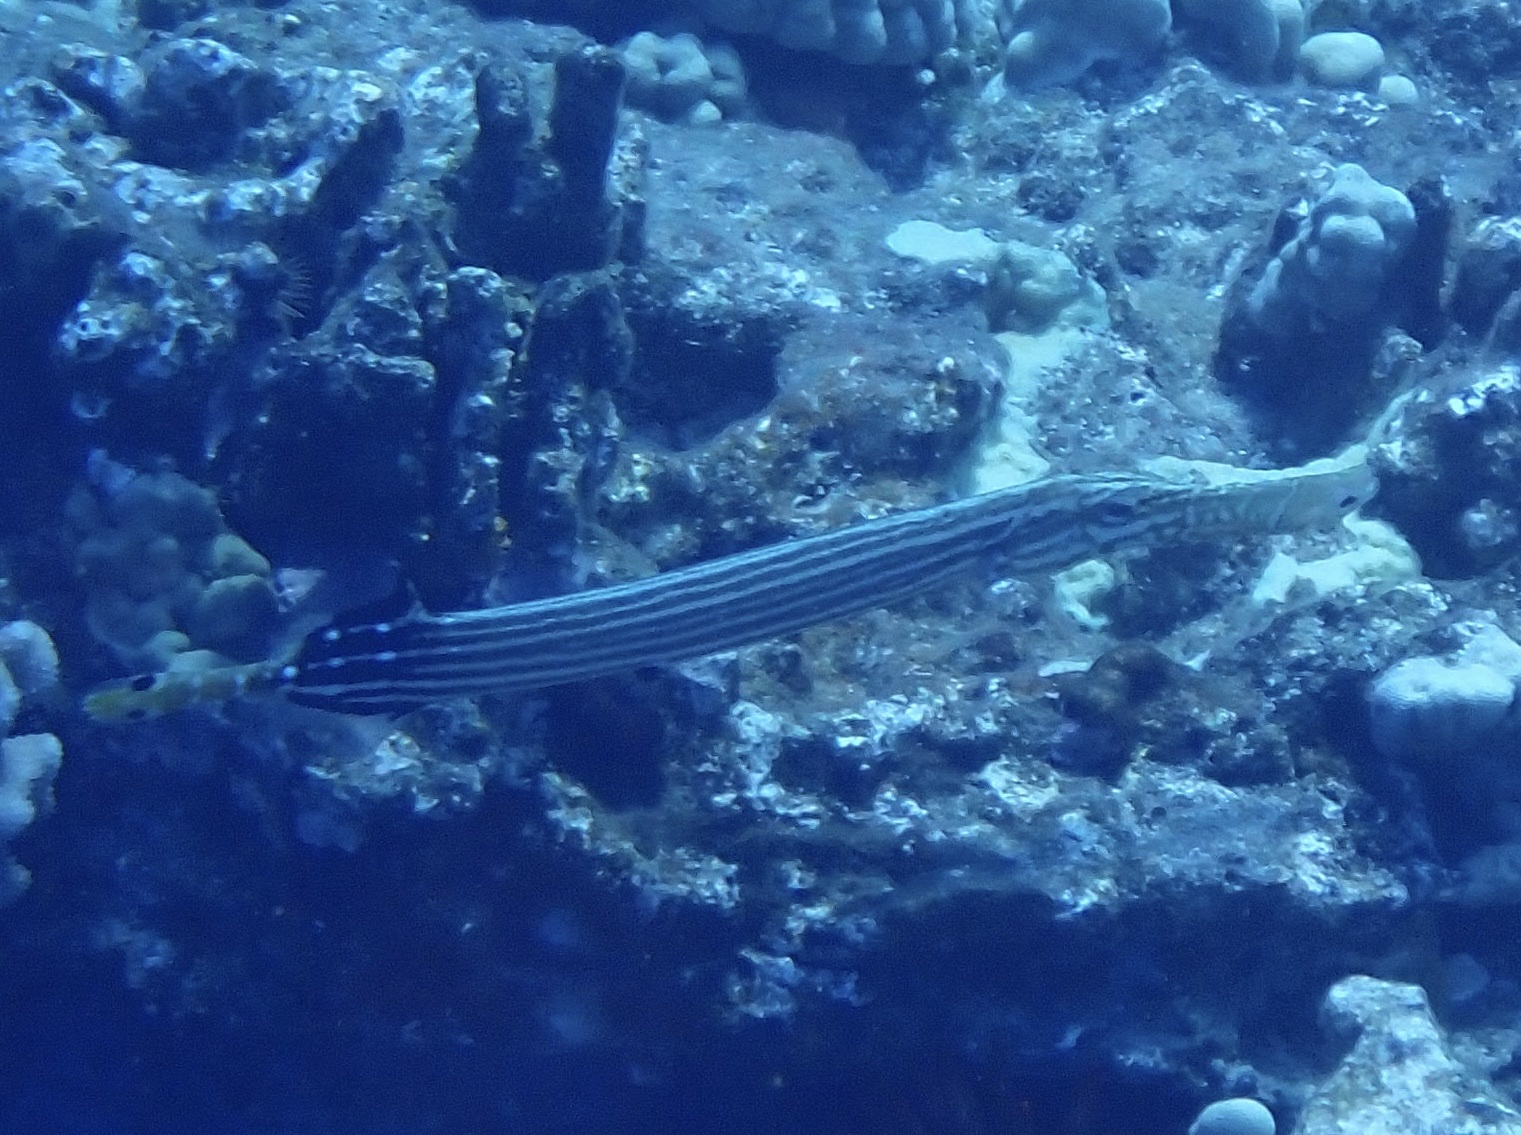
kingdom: Animalia
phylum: Chordata
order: Syngnathiformes
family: Aulostomidae
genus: Aulostomus
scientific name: Aulostomus chinensis
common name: Chinese trumpetfish
